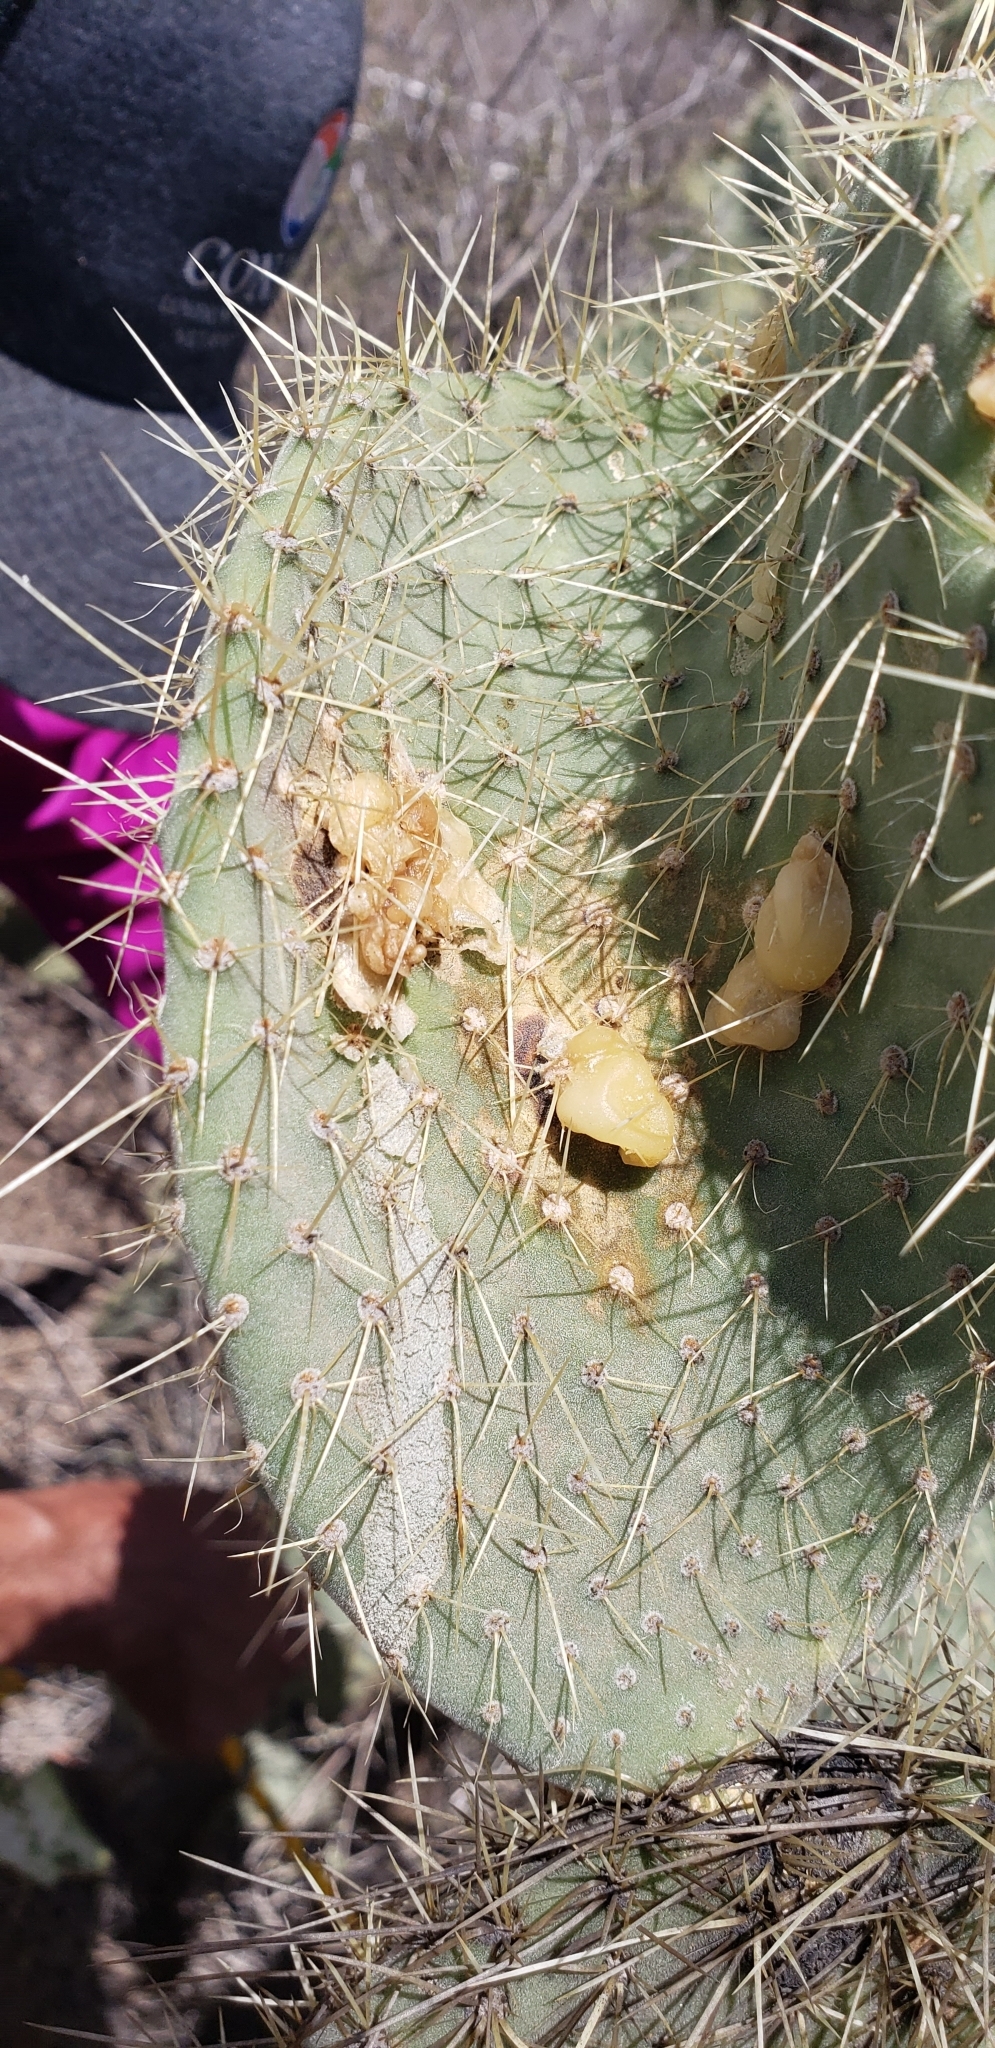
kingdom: Plantae
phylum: Tracheophyta
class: Magnoliopsida
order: Caryophyllales
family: Cactaceae
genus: Opuntia
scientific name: Opuntia leucotricha
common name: Arborescent pricklypear
